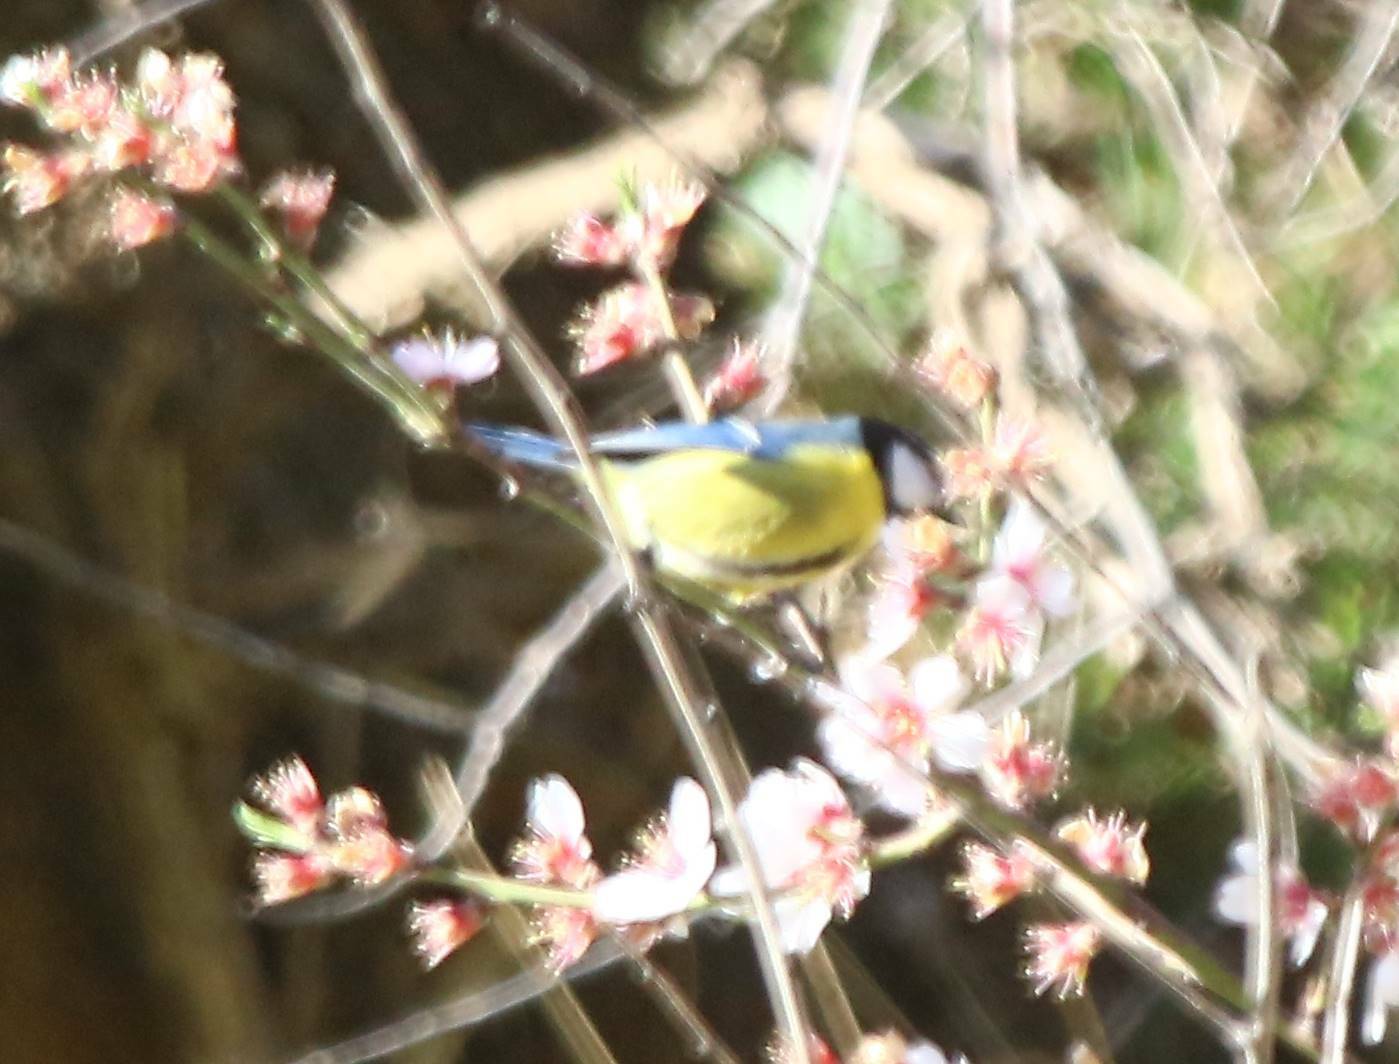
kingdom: Animalia
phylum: Chordata
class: Aves
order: Passeriformes
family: Paridae
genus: Cyanistes
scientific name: Cyanistes teneriffae
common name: African blue tit
